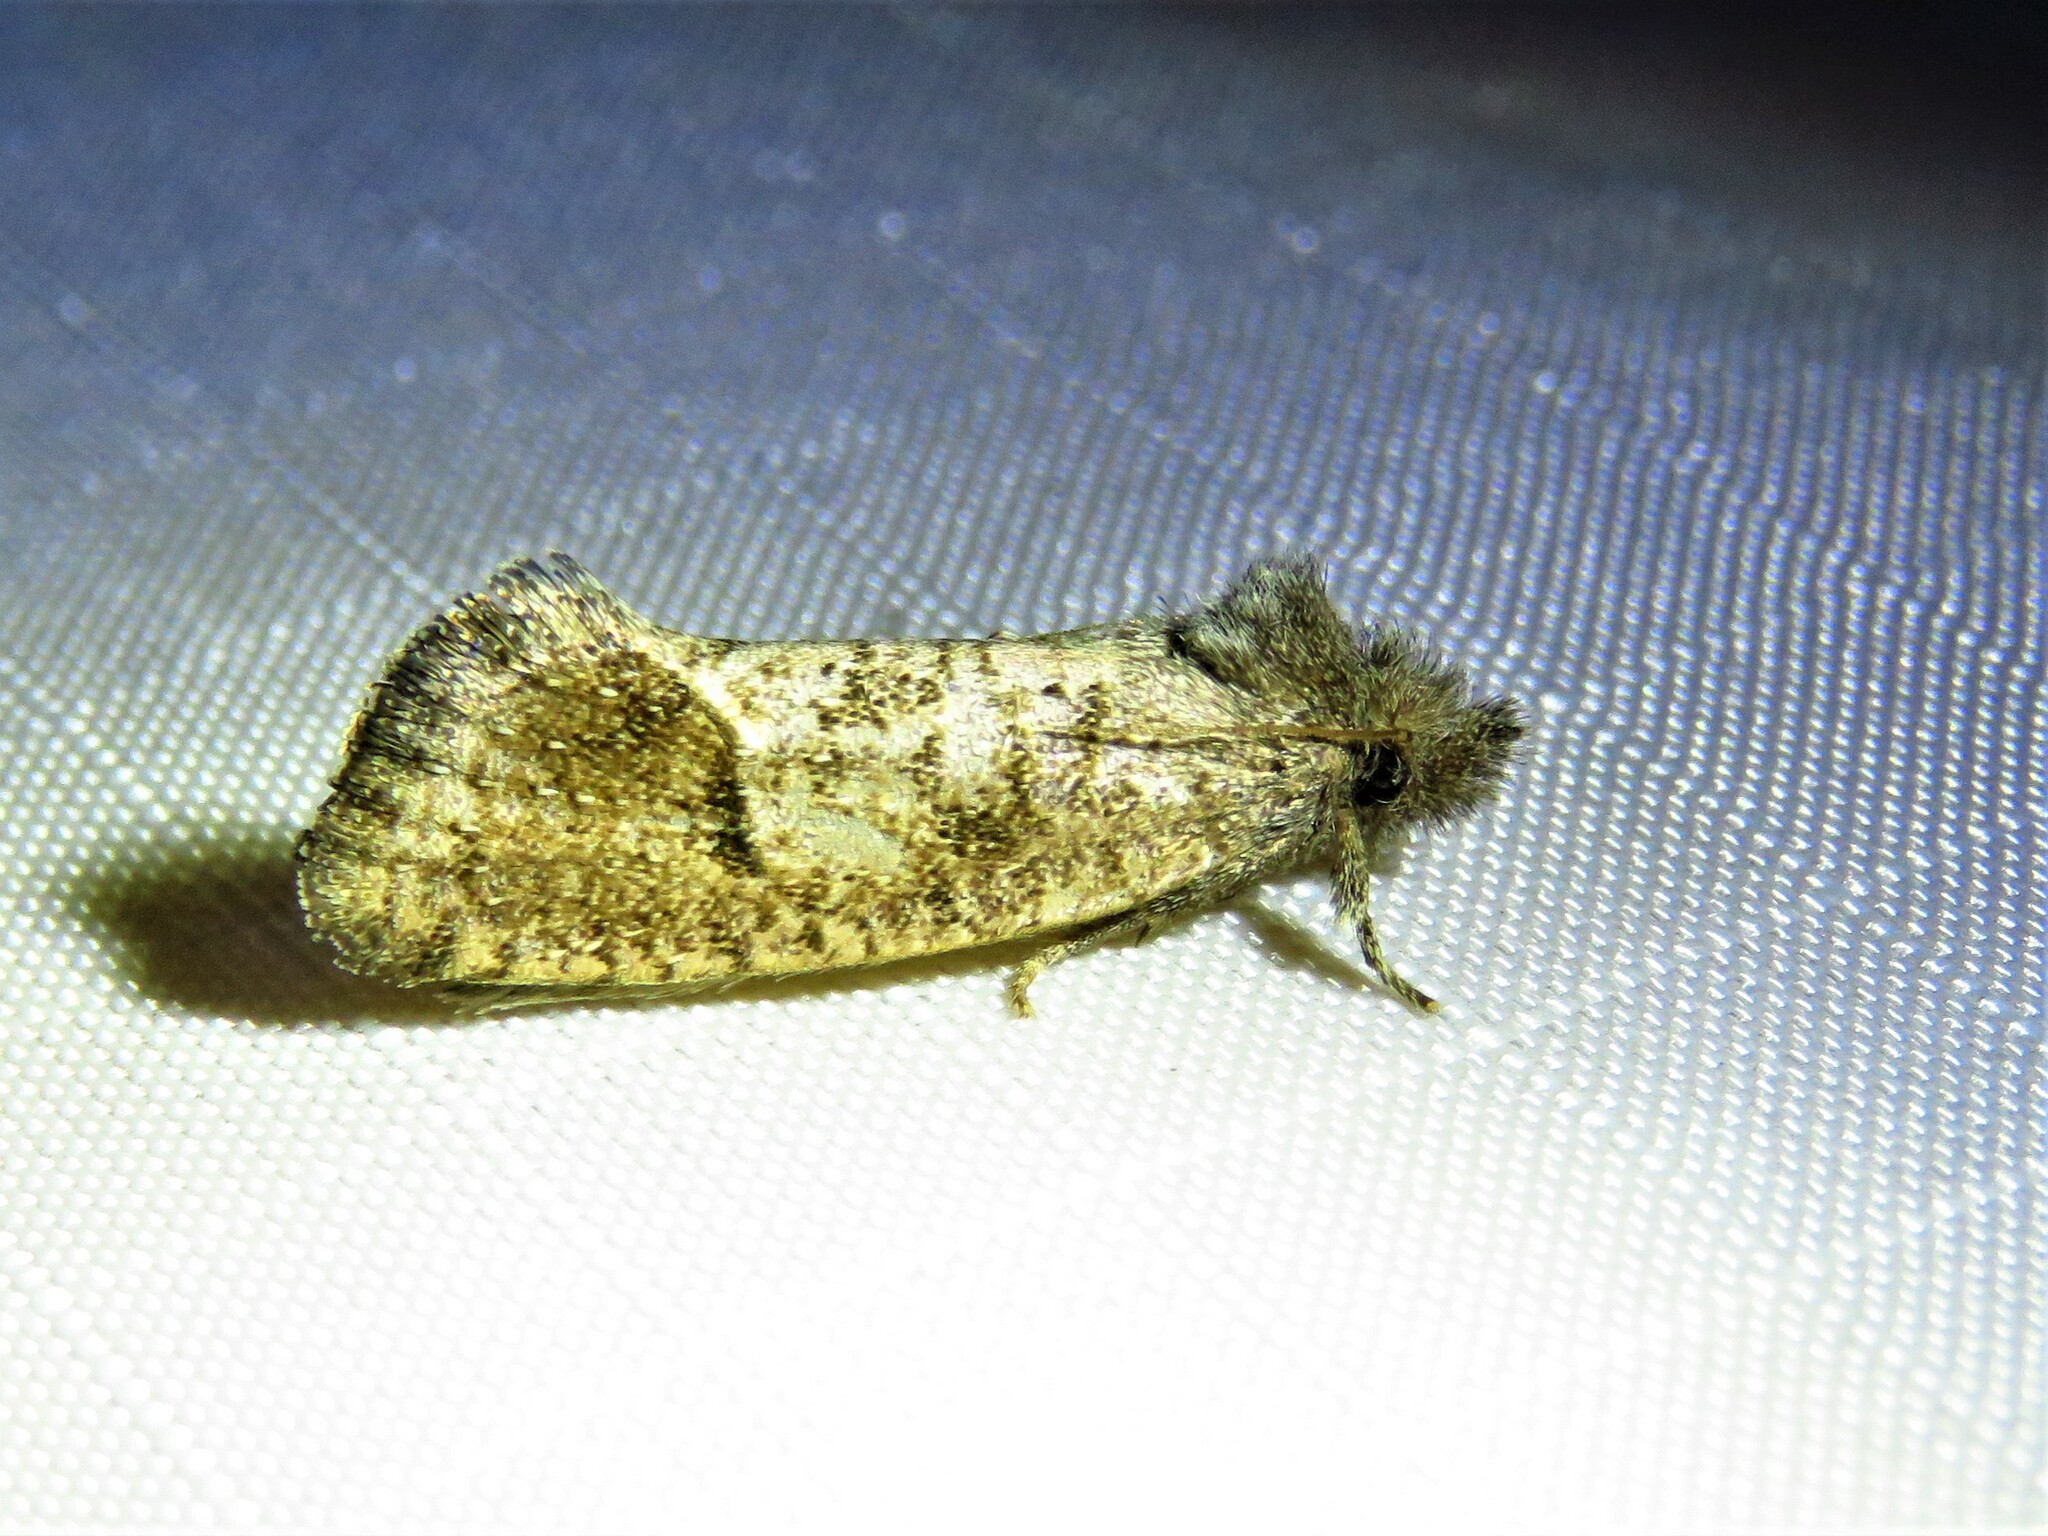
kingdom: Animalia
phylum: Arthropoda
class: Insecta
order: Lepidoptera
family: Tineidae
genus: Acrolophus
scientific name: Acrolophus texanella
